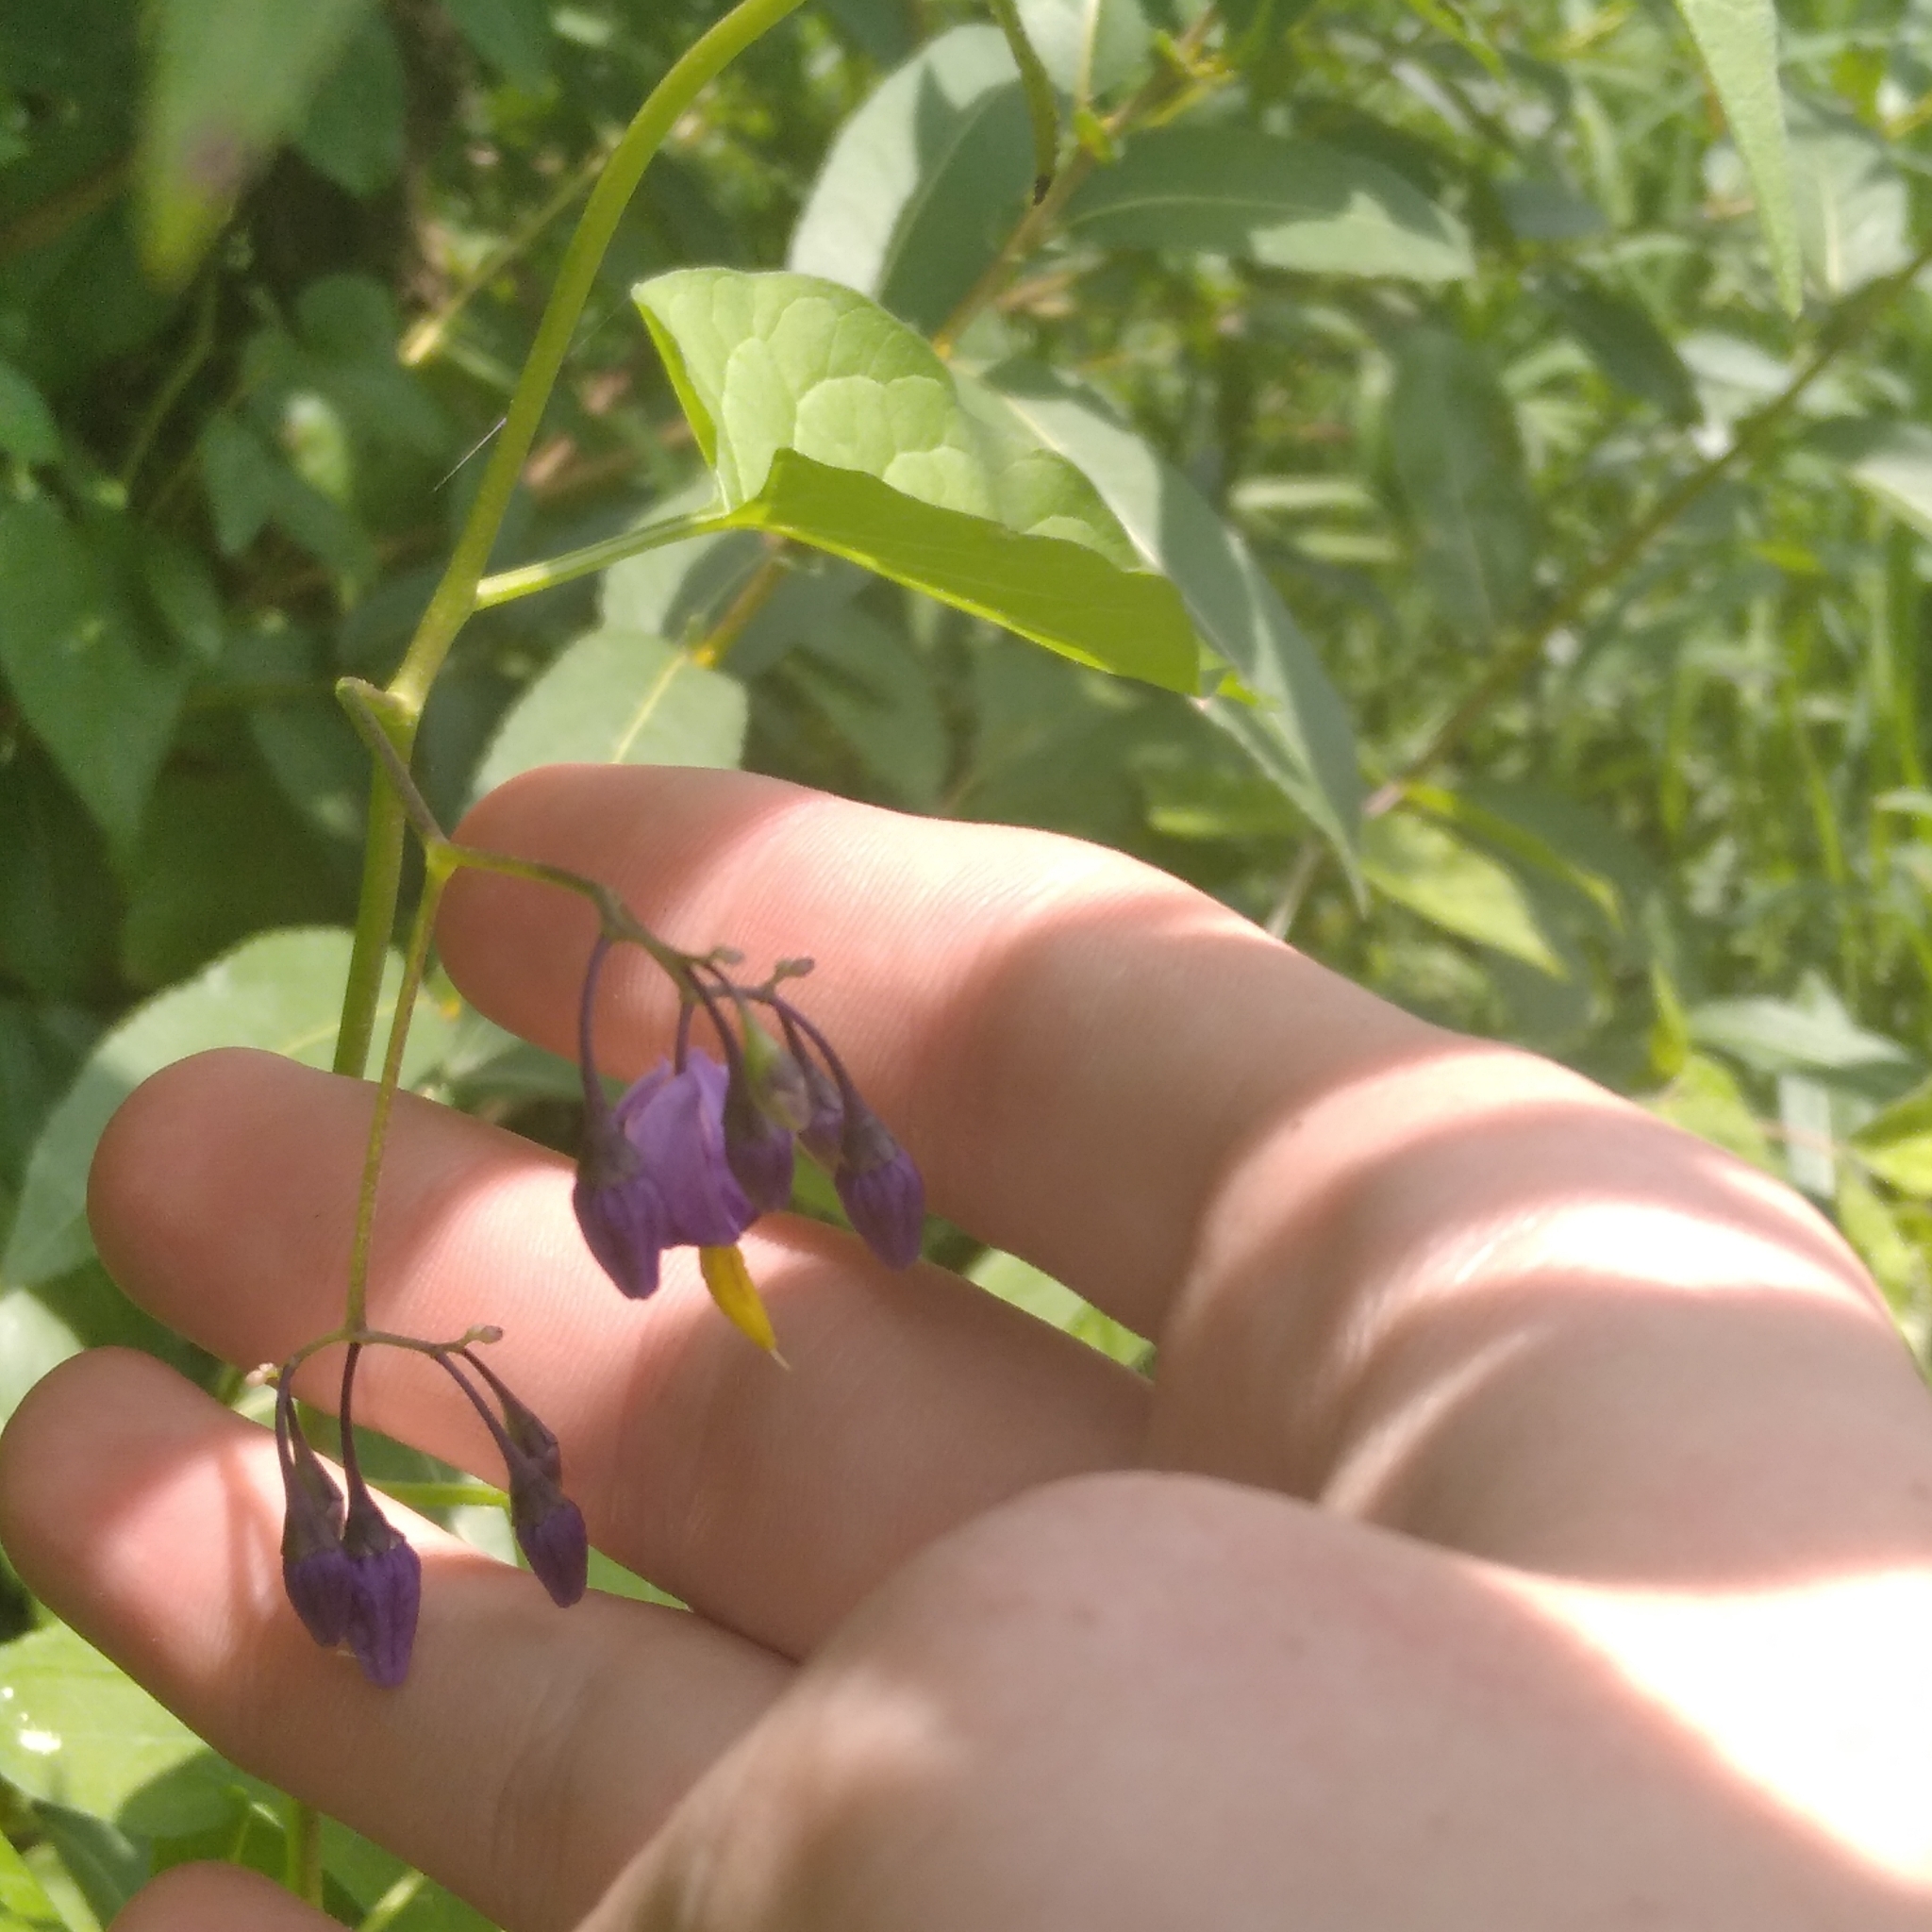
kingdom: Plantae
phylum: Tracheophyta
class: Magnoliopsida
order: Solanales
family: Solanaceae
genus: Solanum
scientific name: Solanum dulcamara
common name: Climbing nightshade
